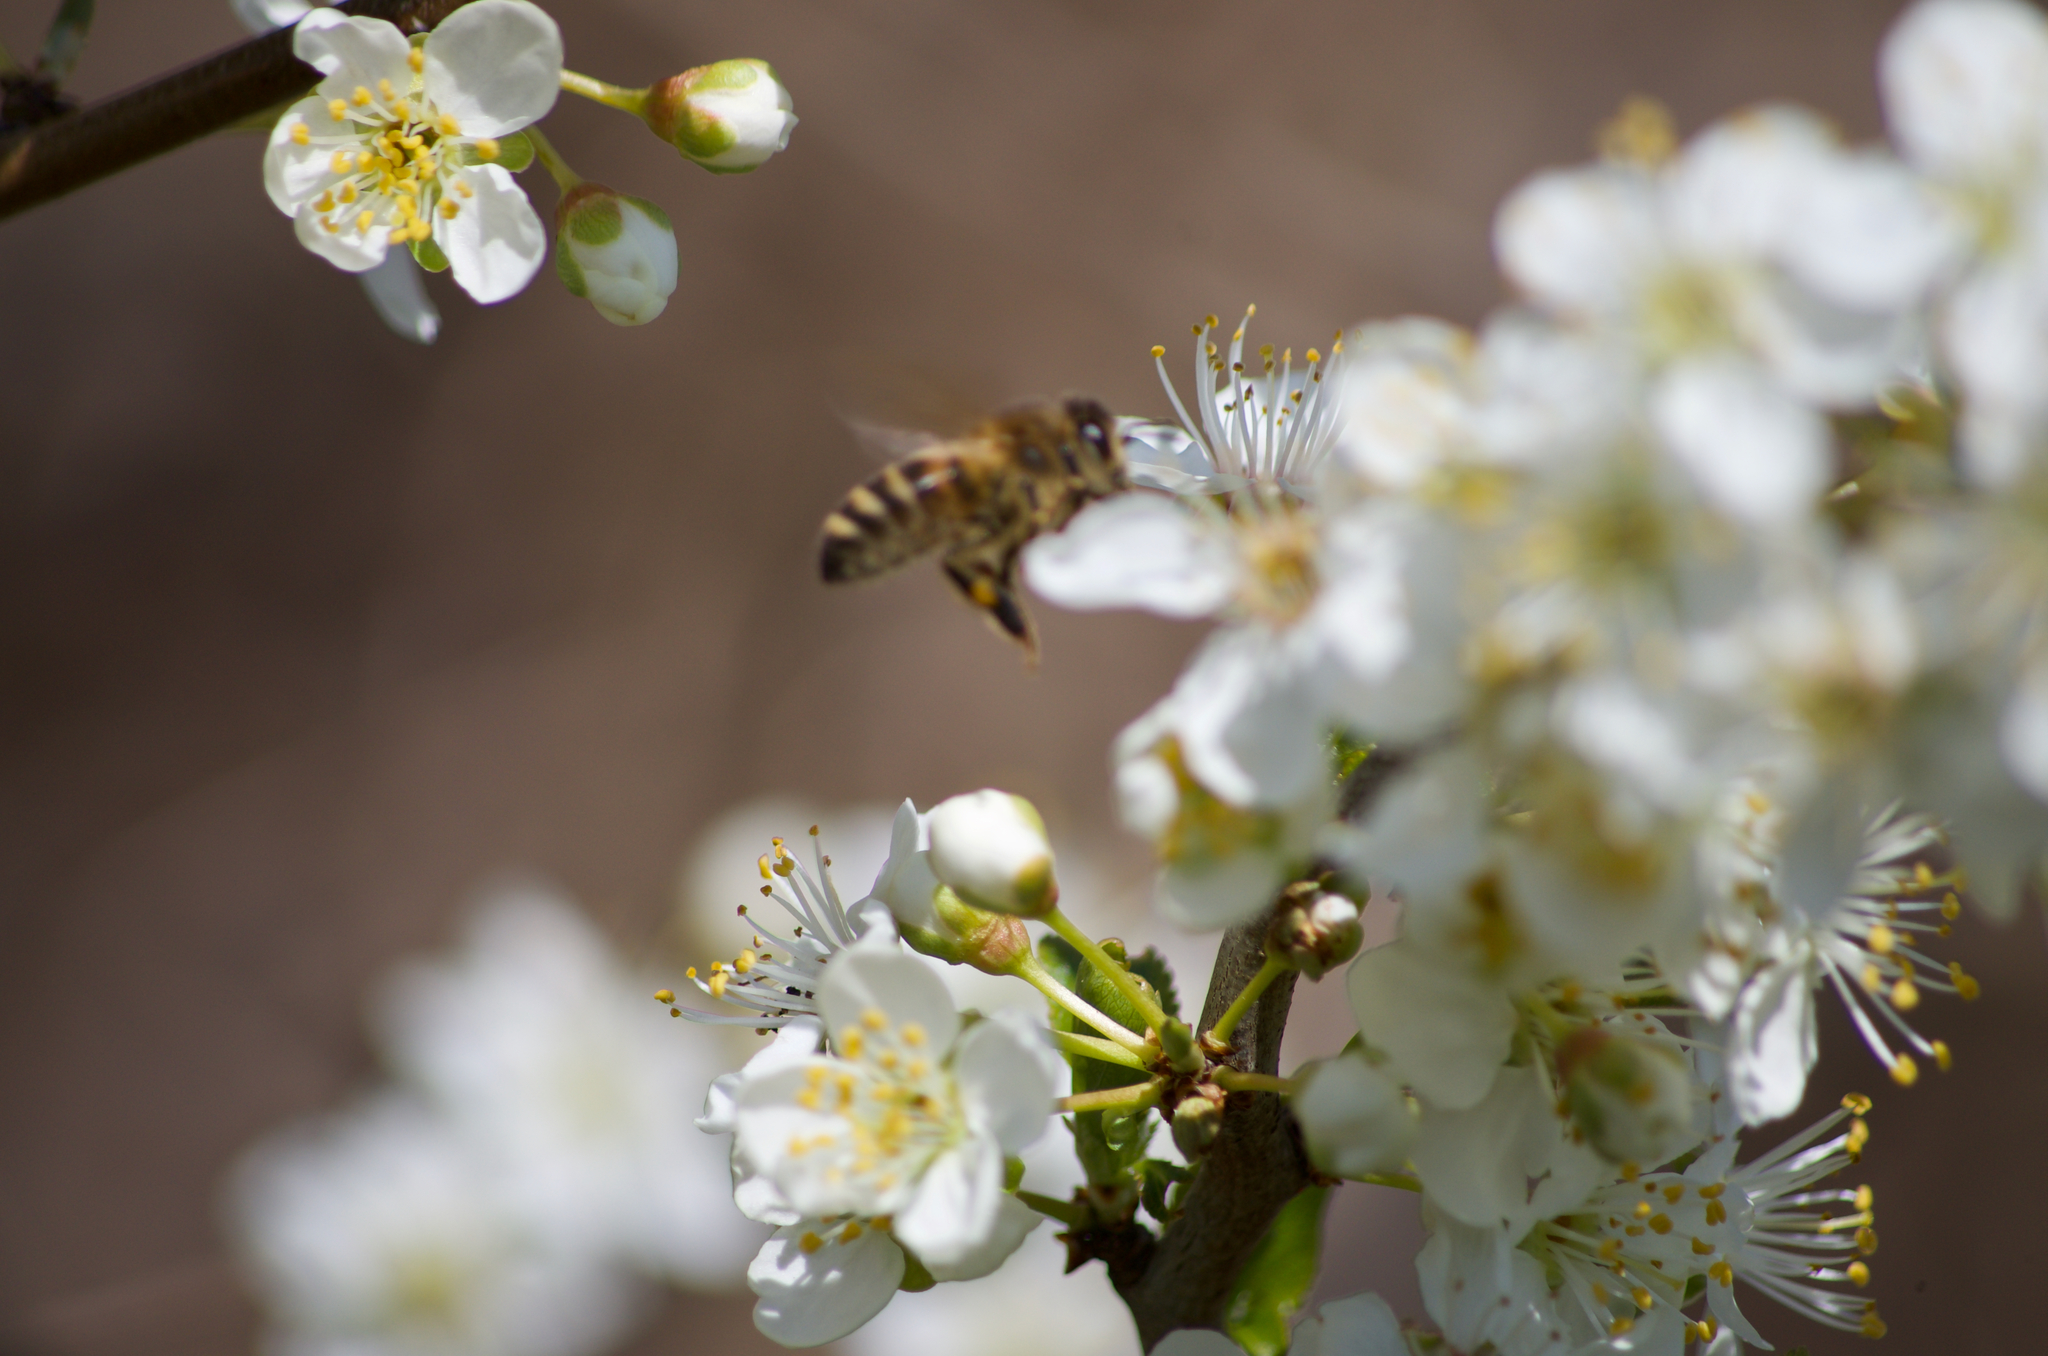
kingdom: Animalia
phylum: Arthropoda
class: Insecta
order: Hymenoptera
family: Apidae
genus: Apis
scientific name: Apis mellifera
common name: Honey bee
